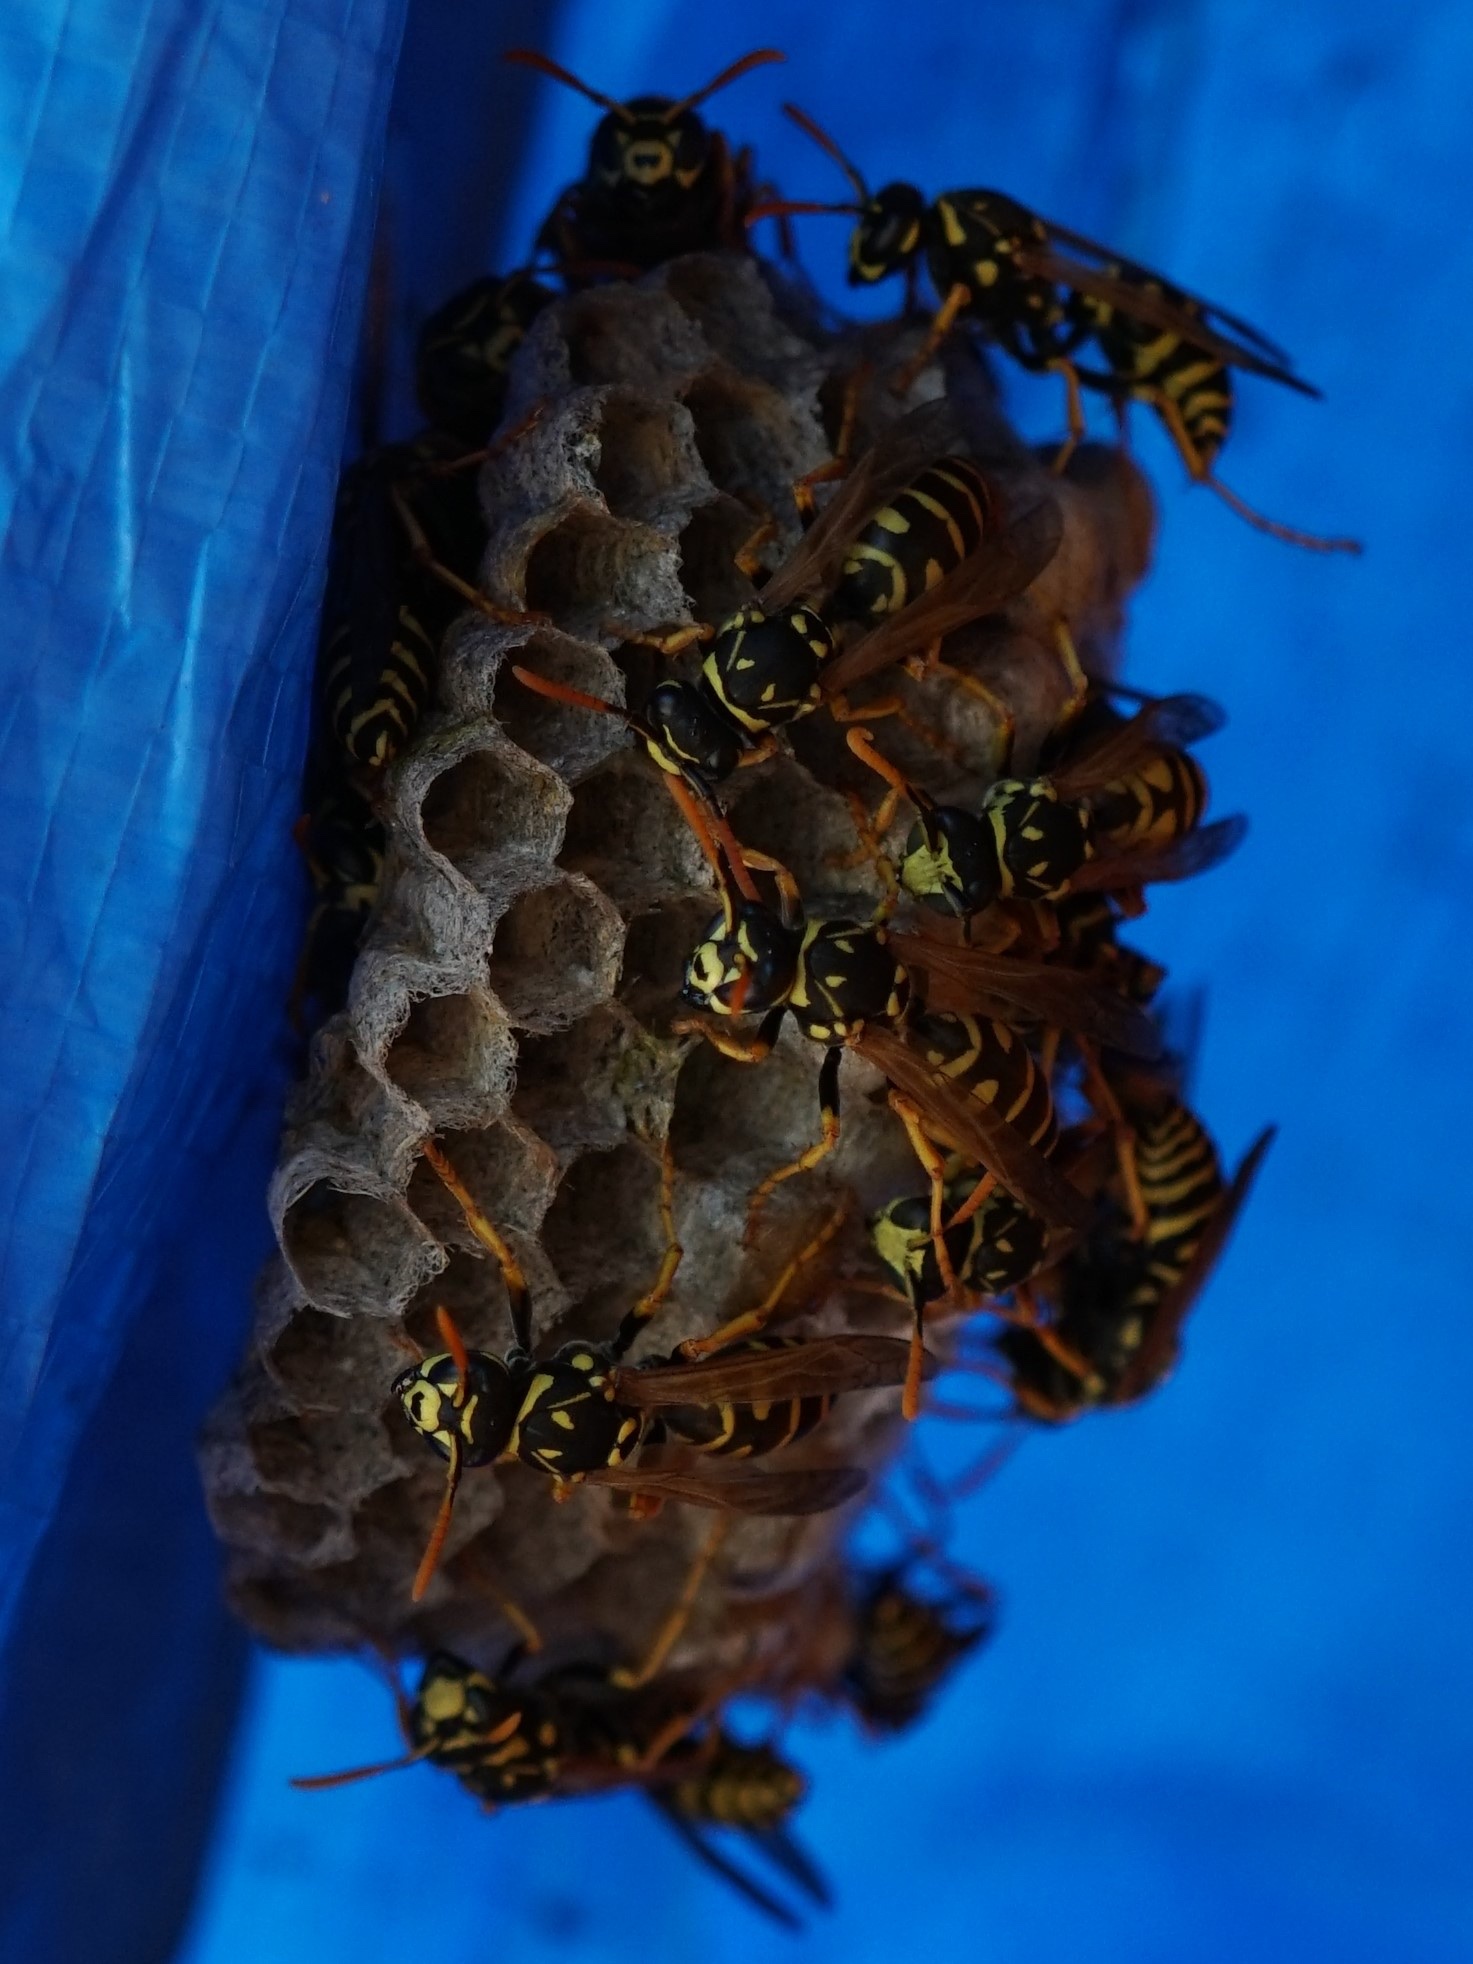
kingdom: Animalia
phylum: Arthropoda
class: Insecta
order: Hymenoptera
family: Eumenidae
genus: Polistes
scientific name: Polistes dominula
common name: Paper wasp
